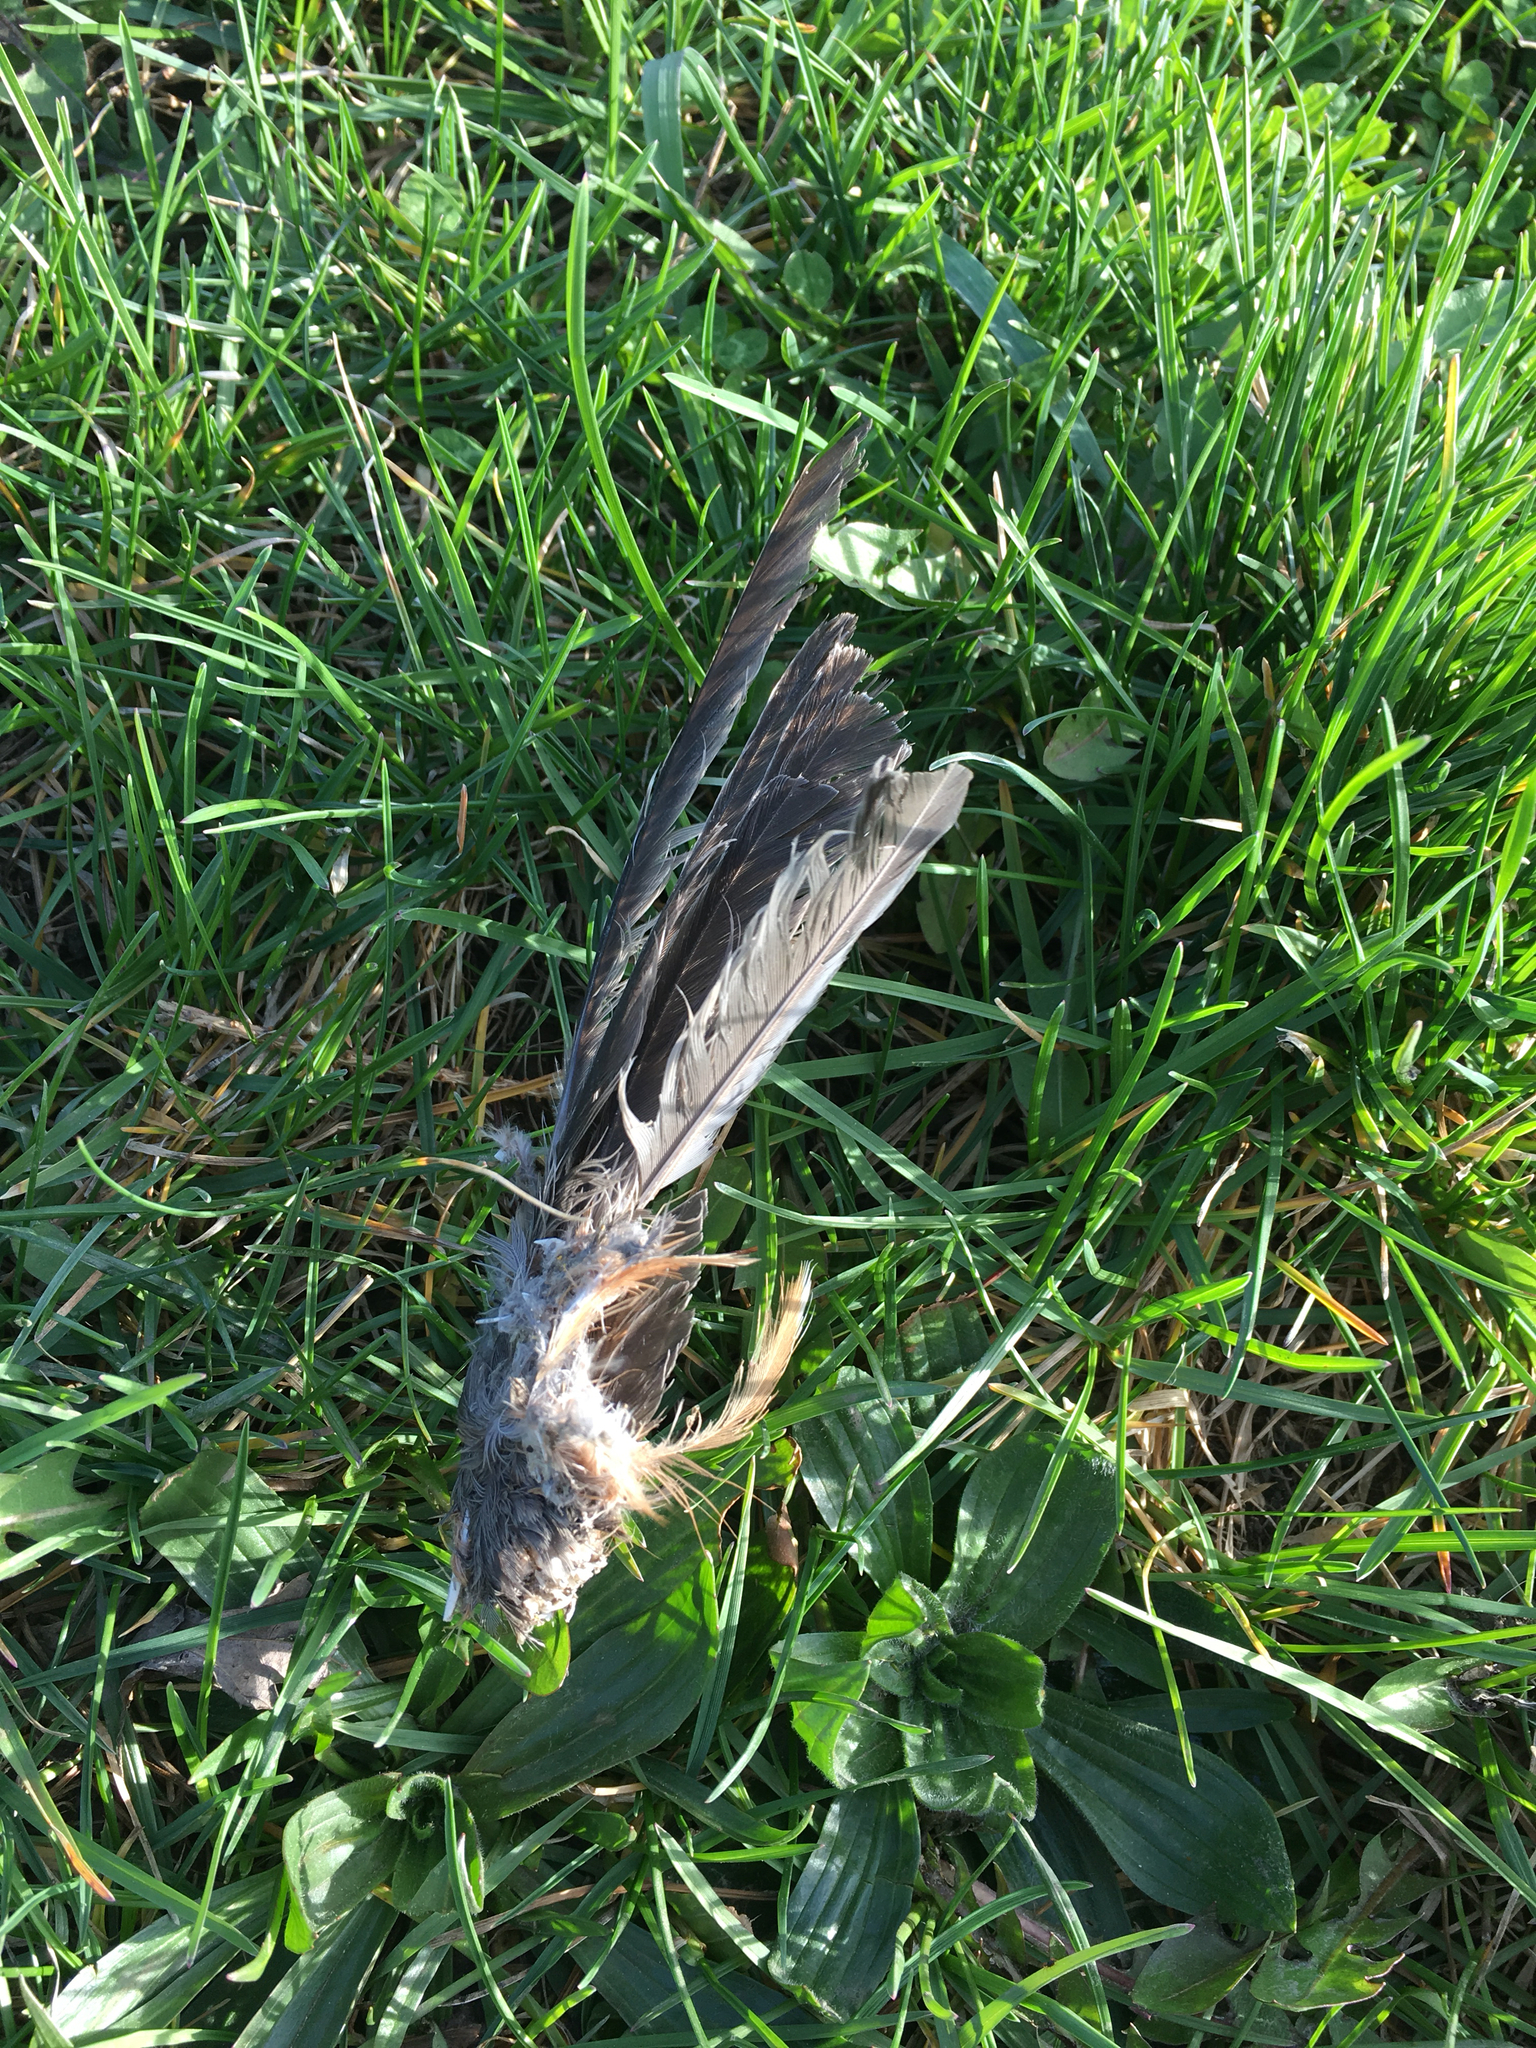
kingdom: Animalia
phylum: Chordata
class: Aves
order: Passeriformes
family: Turdidae
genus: Turdus
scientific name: Turdus migratorius
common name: American robin
